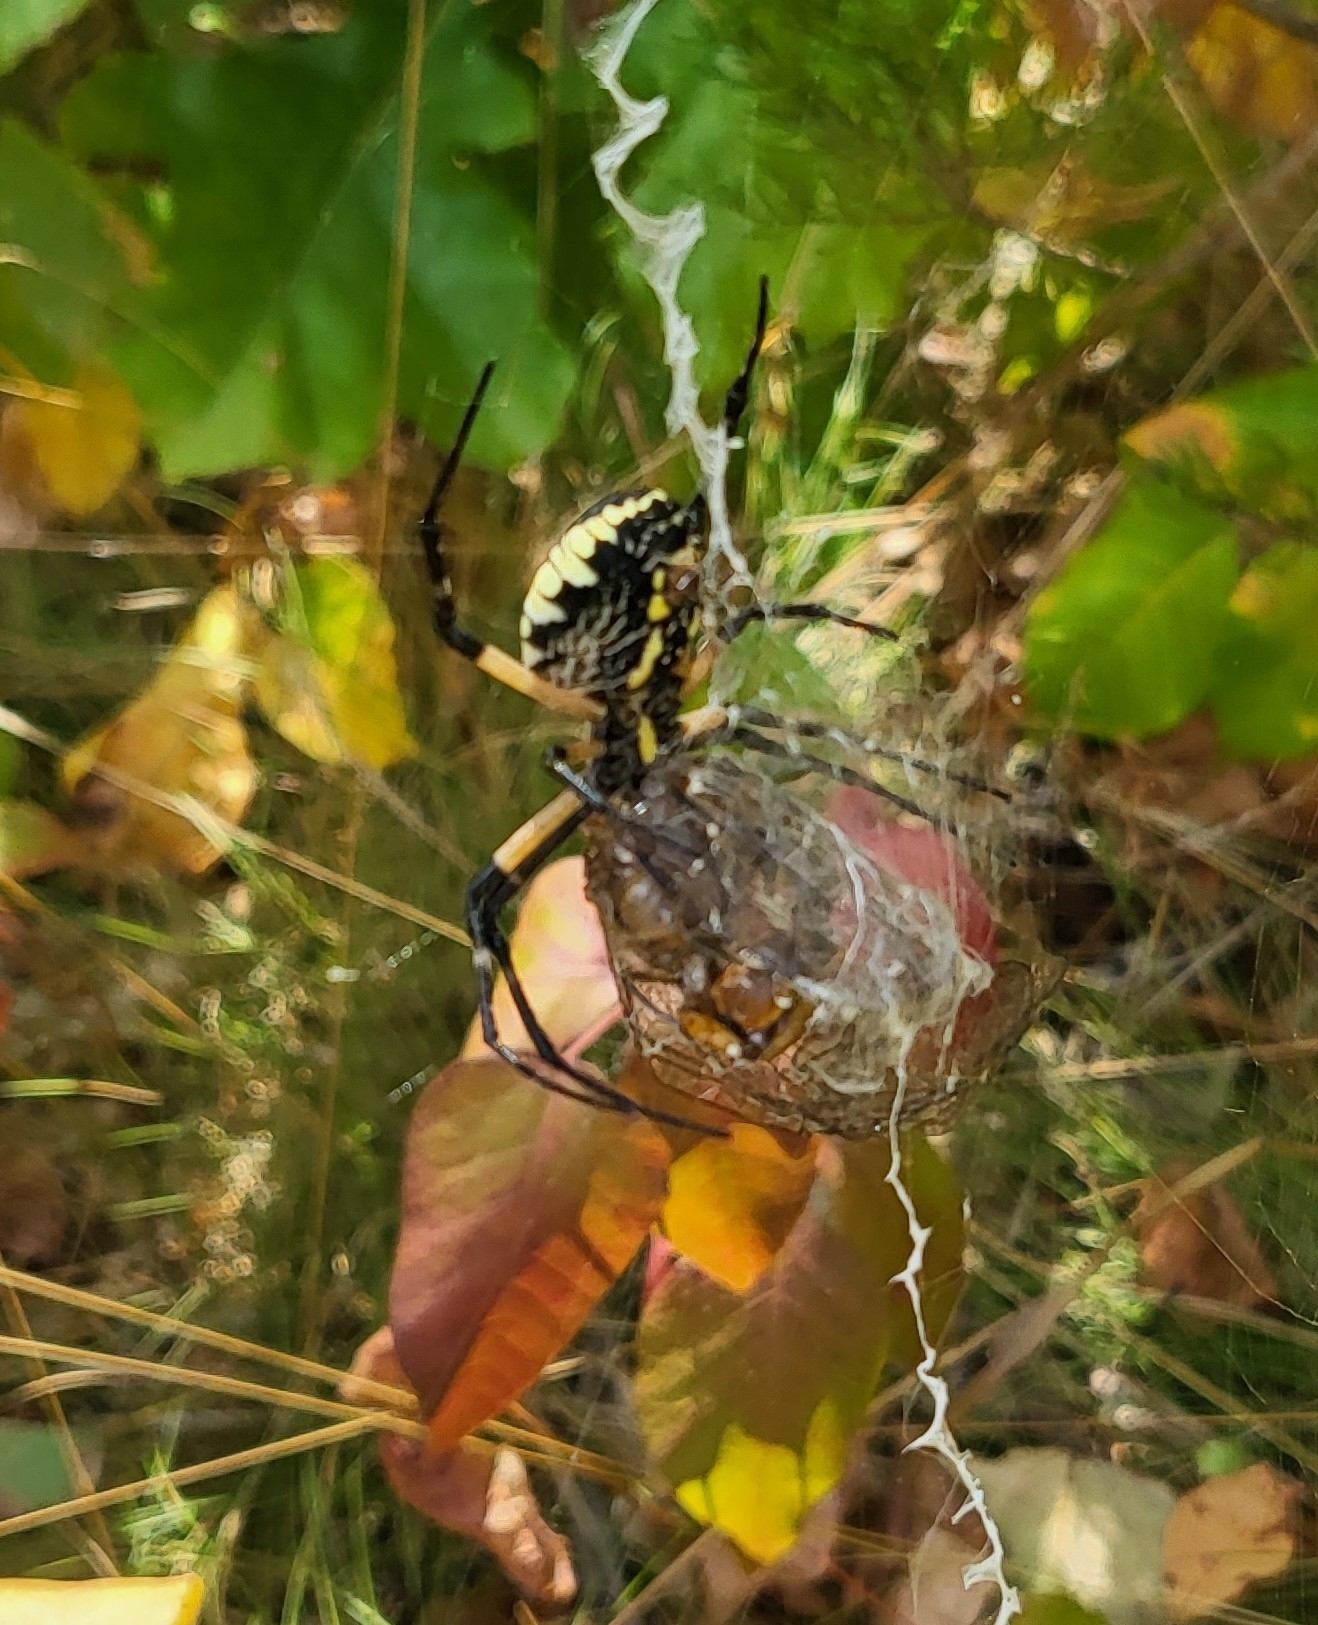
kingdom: Animalia
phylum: Arthropoda
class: Arachnida
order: Araneae
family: Araneidae
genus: Argiope
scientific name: Argiope aurantia
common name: Orb weavers
